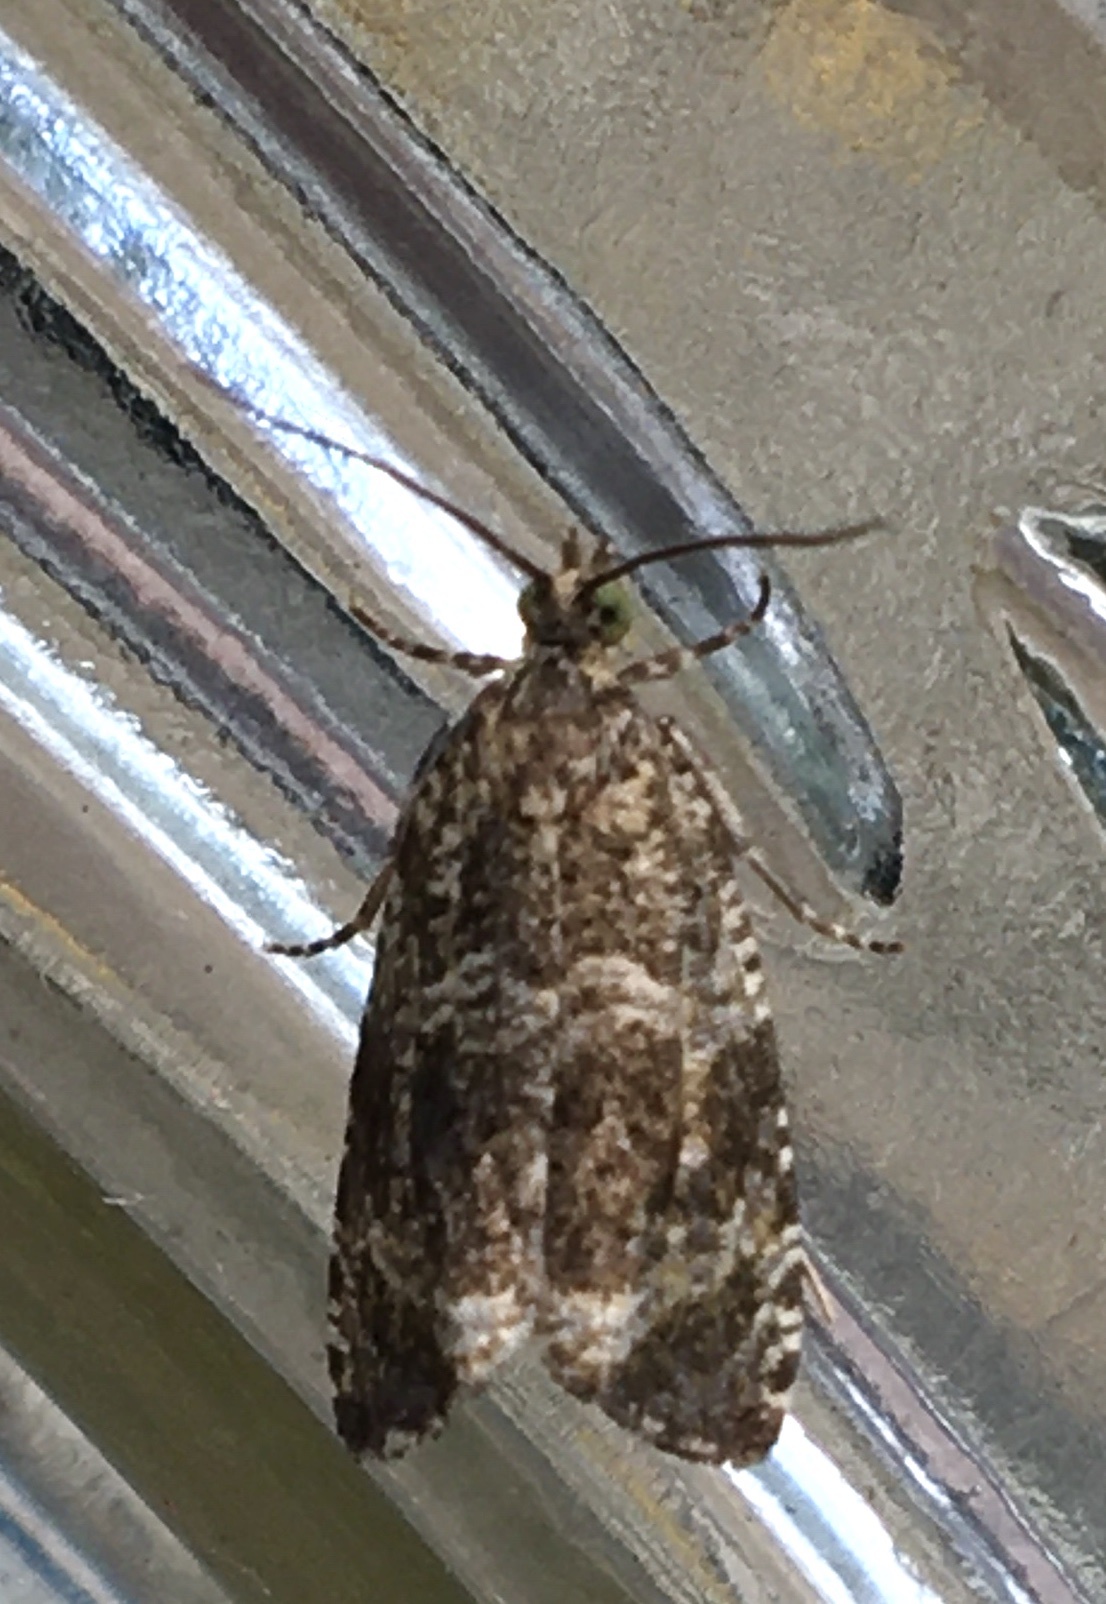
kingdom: Animalia
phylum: Arthropoda
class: Insecta
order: Lepidoptera
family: Tortricidae
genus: Syricoris
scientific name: Syricoris lacunana
